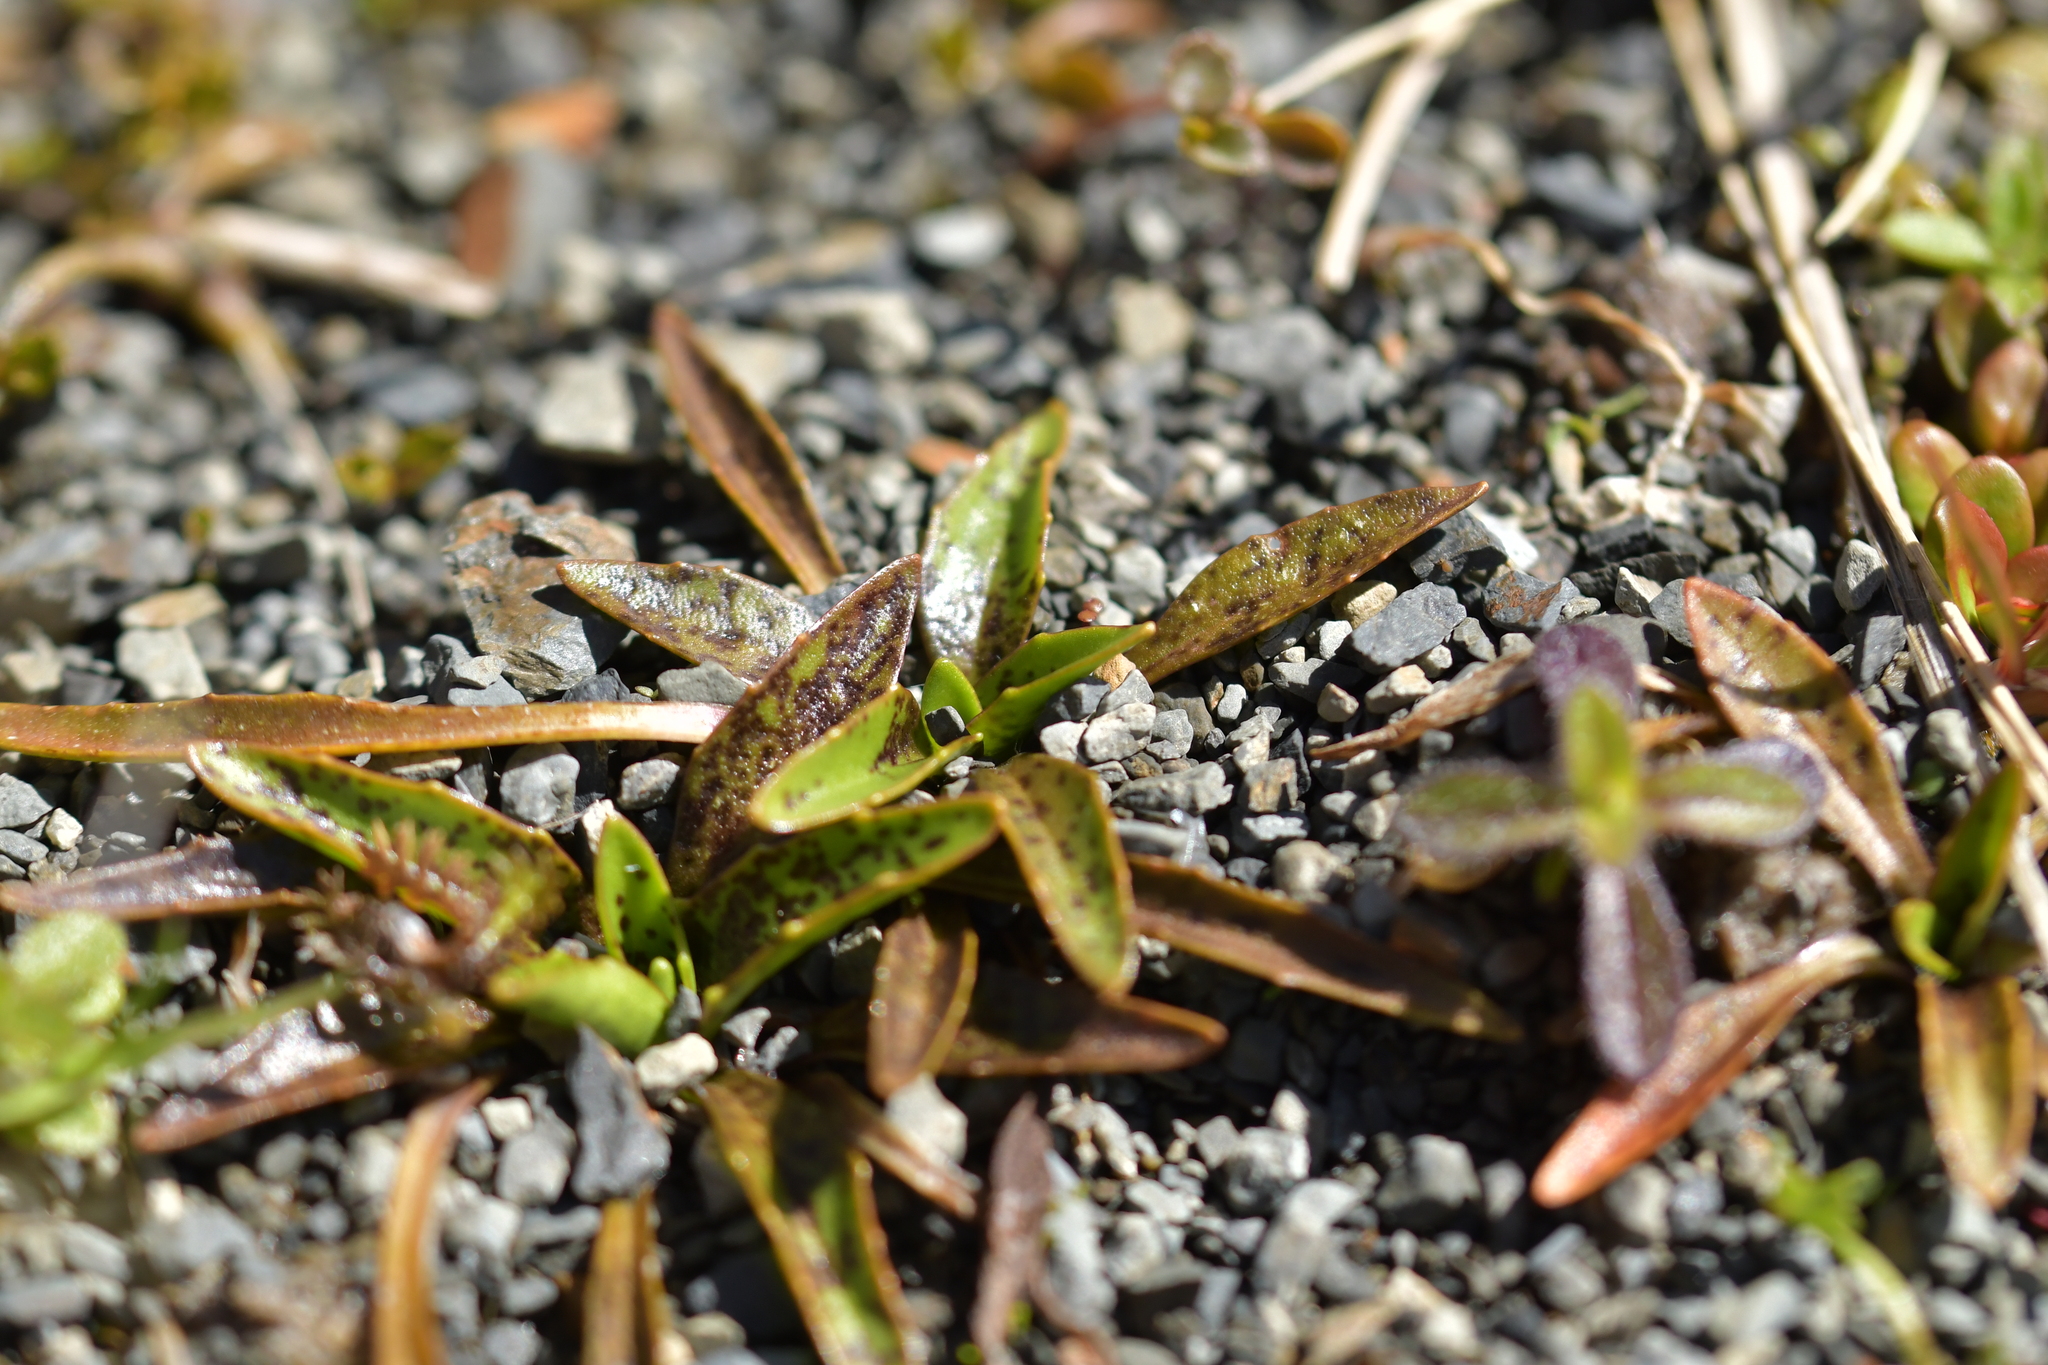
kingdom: Plantae
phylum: Tracheophyta
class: Magnoliopsida
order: Lamiales
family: Plantaginaceae
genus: Plantago
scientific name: Plantago triandra
